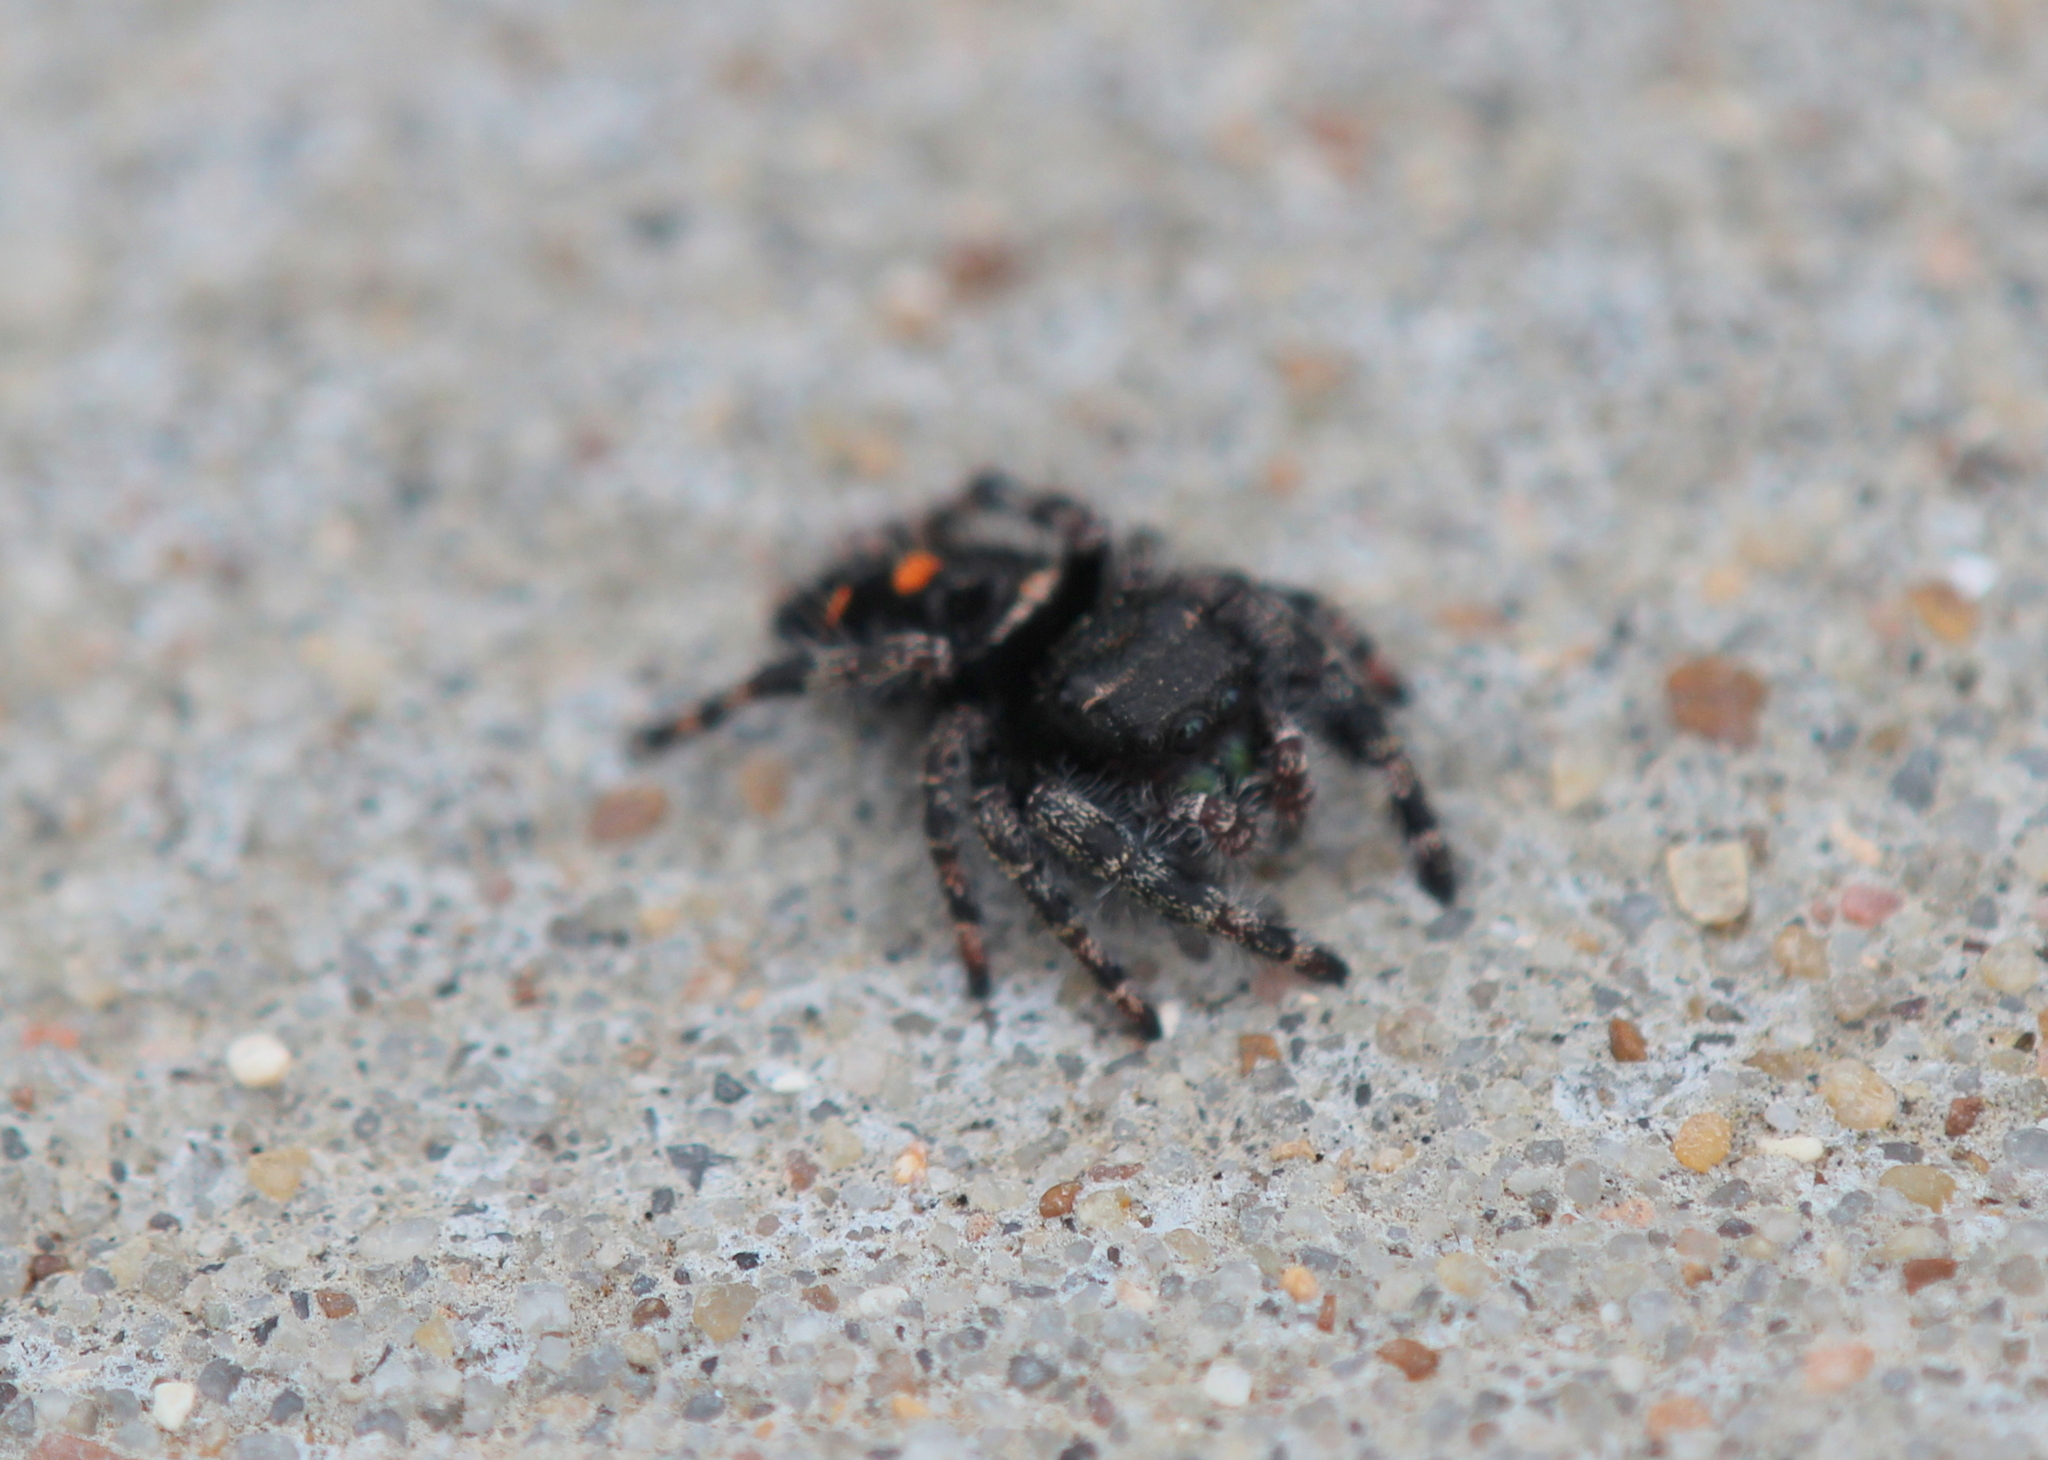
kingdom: Animalia
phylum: Arthropoda
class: Arachnida
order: Araneae
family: Salticidae
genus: Phidippus
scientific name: Phidippus audax
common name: Bold jumper
